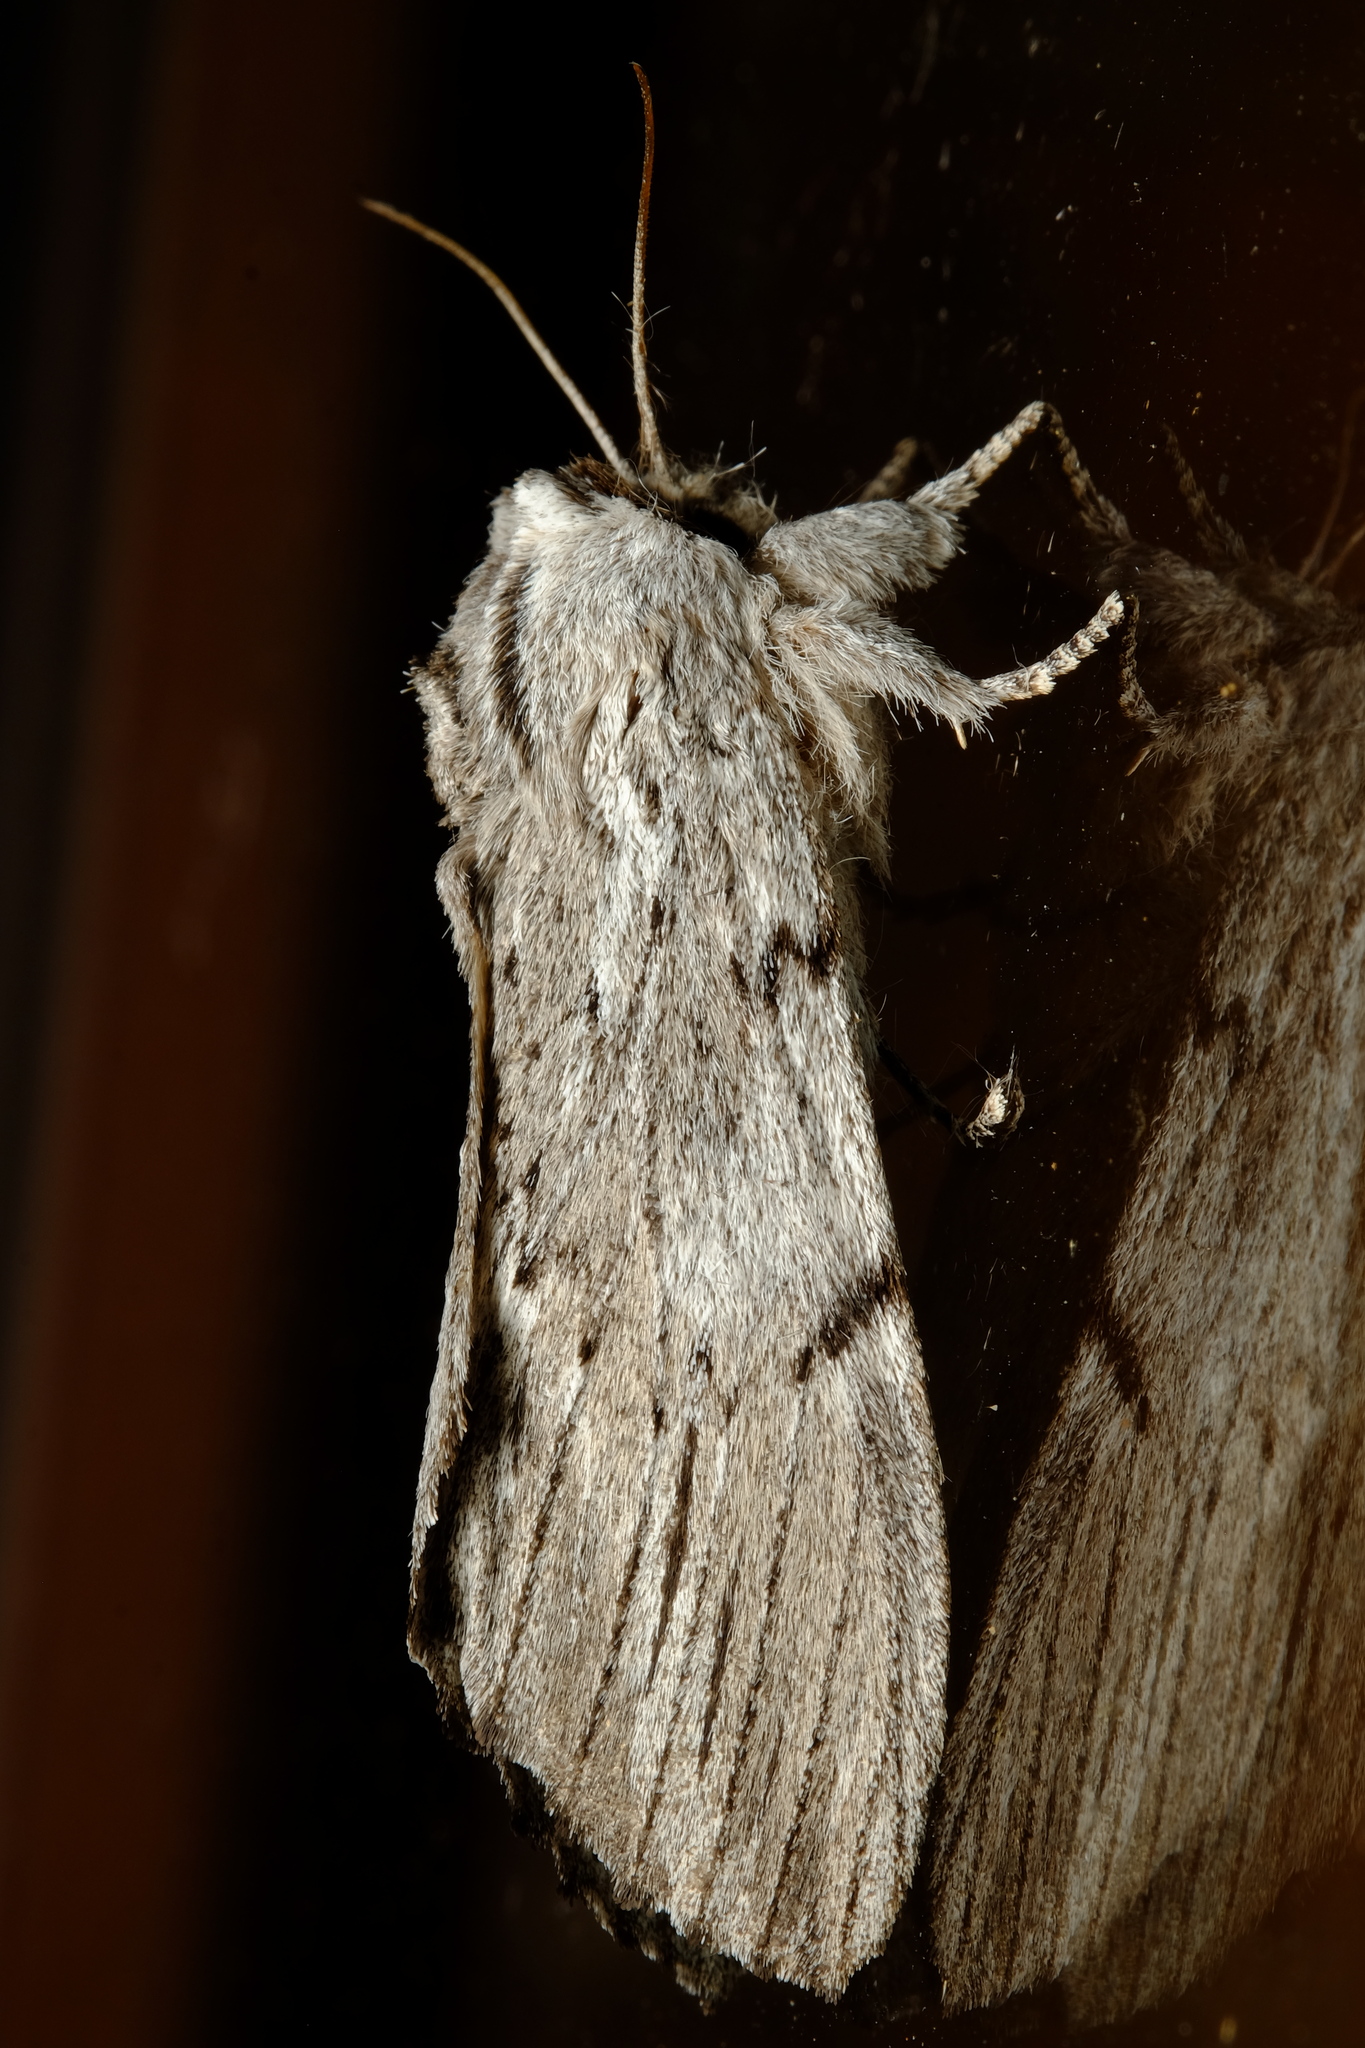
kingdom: Animalia
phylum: Arthropoda
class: Insecta
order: Lepidoptera
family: Notodontidae
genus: Destolmia
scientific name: Destolmia lineata
